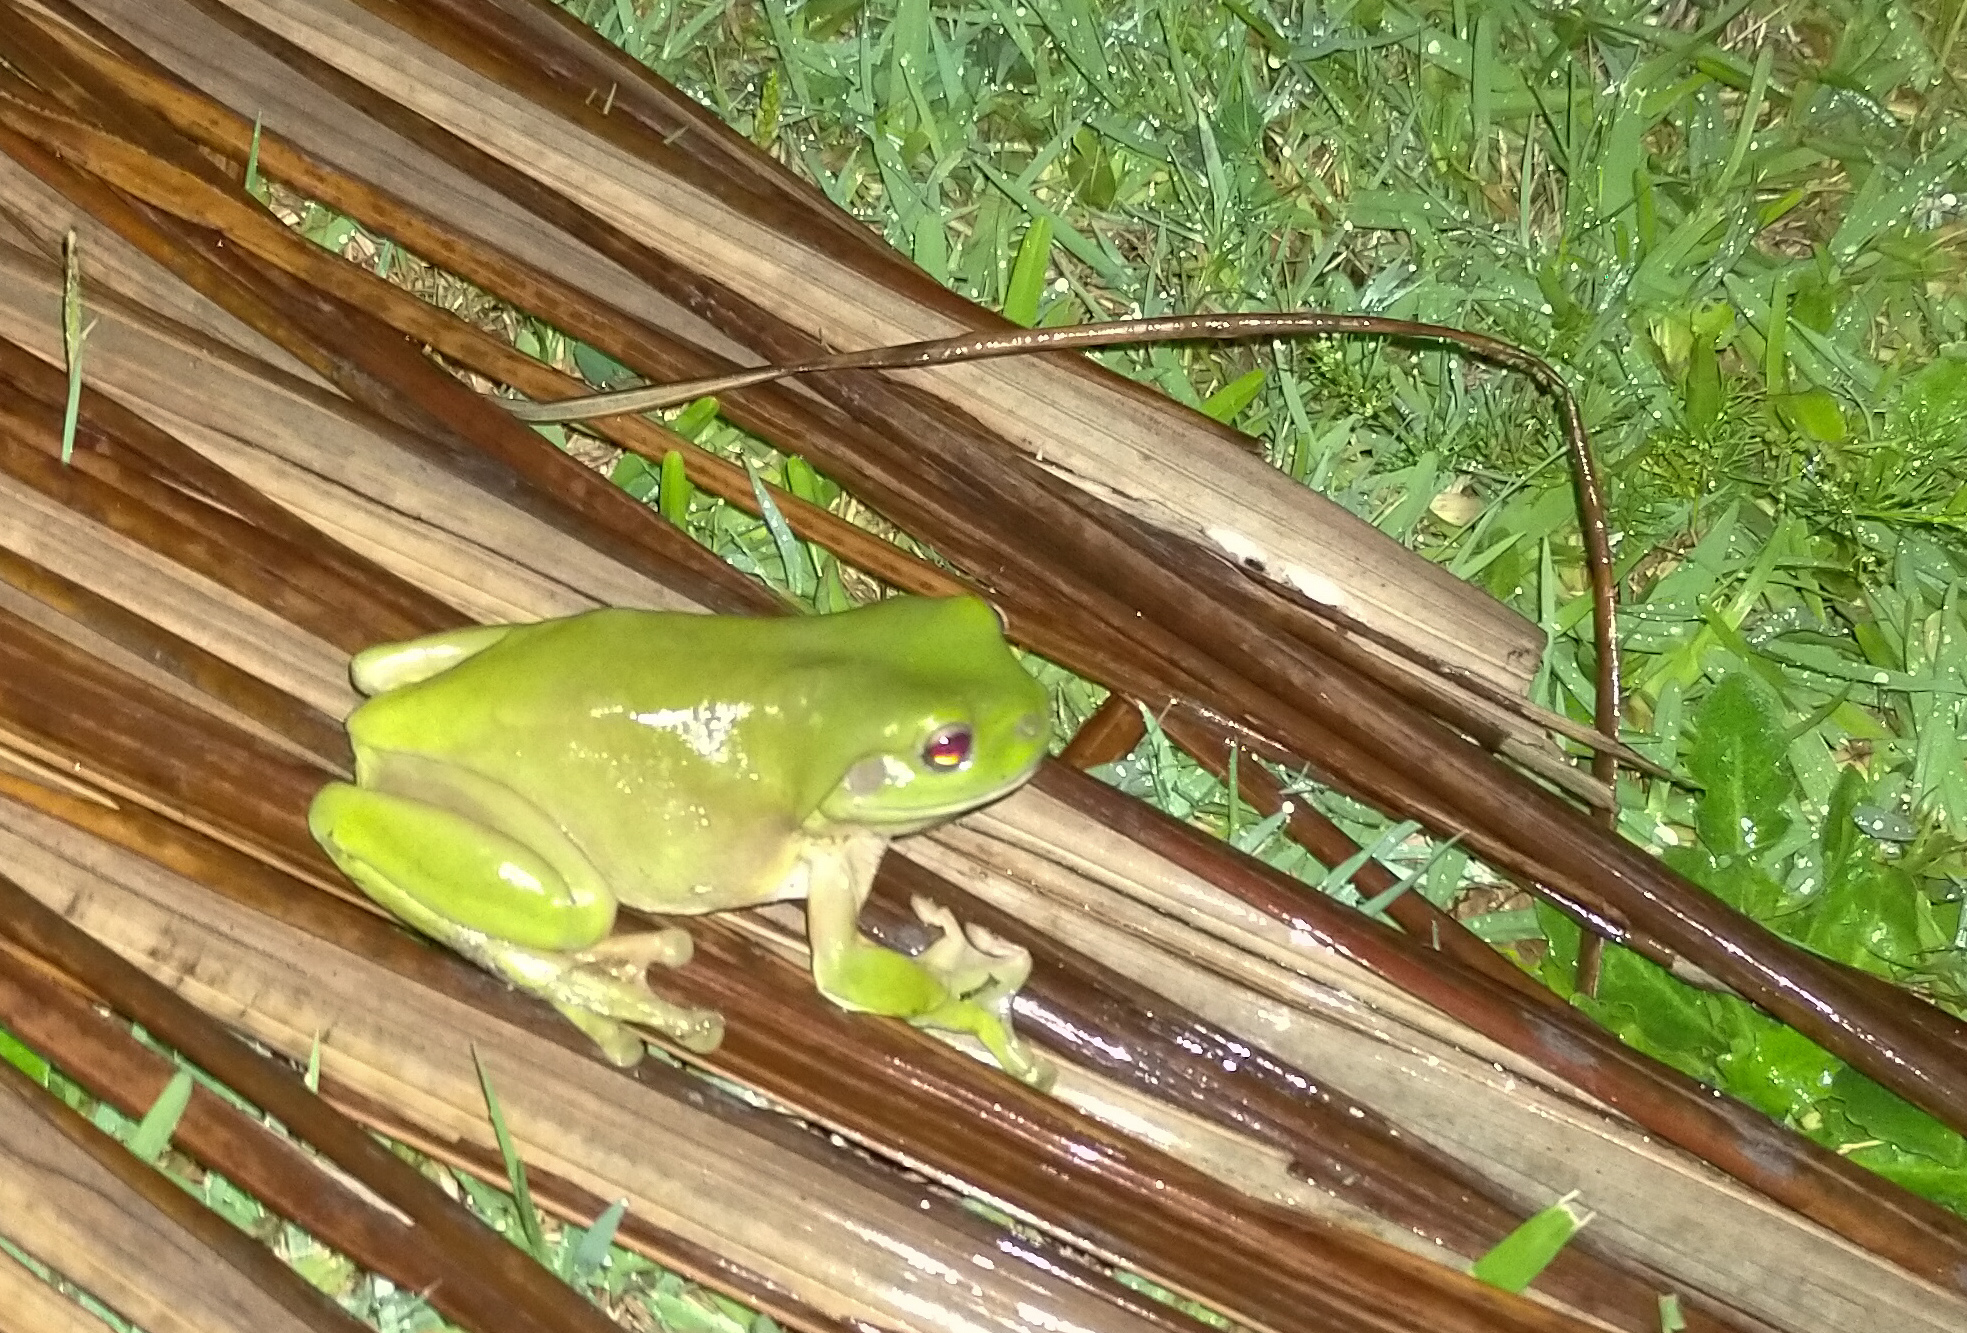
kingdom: Animalia
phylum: Chordata
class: Amphibia
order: Anura
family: Pelodryadidae
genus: Ranoidea
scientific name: Ranoidea caerulea
